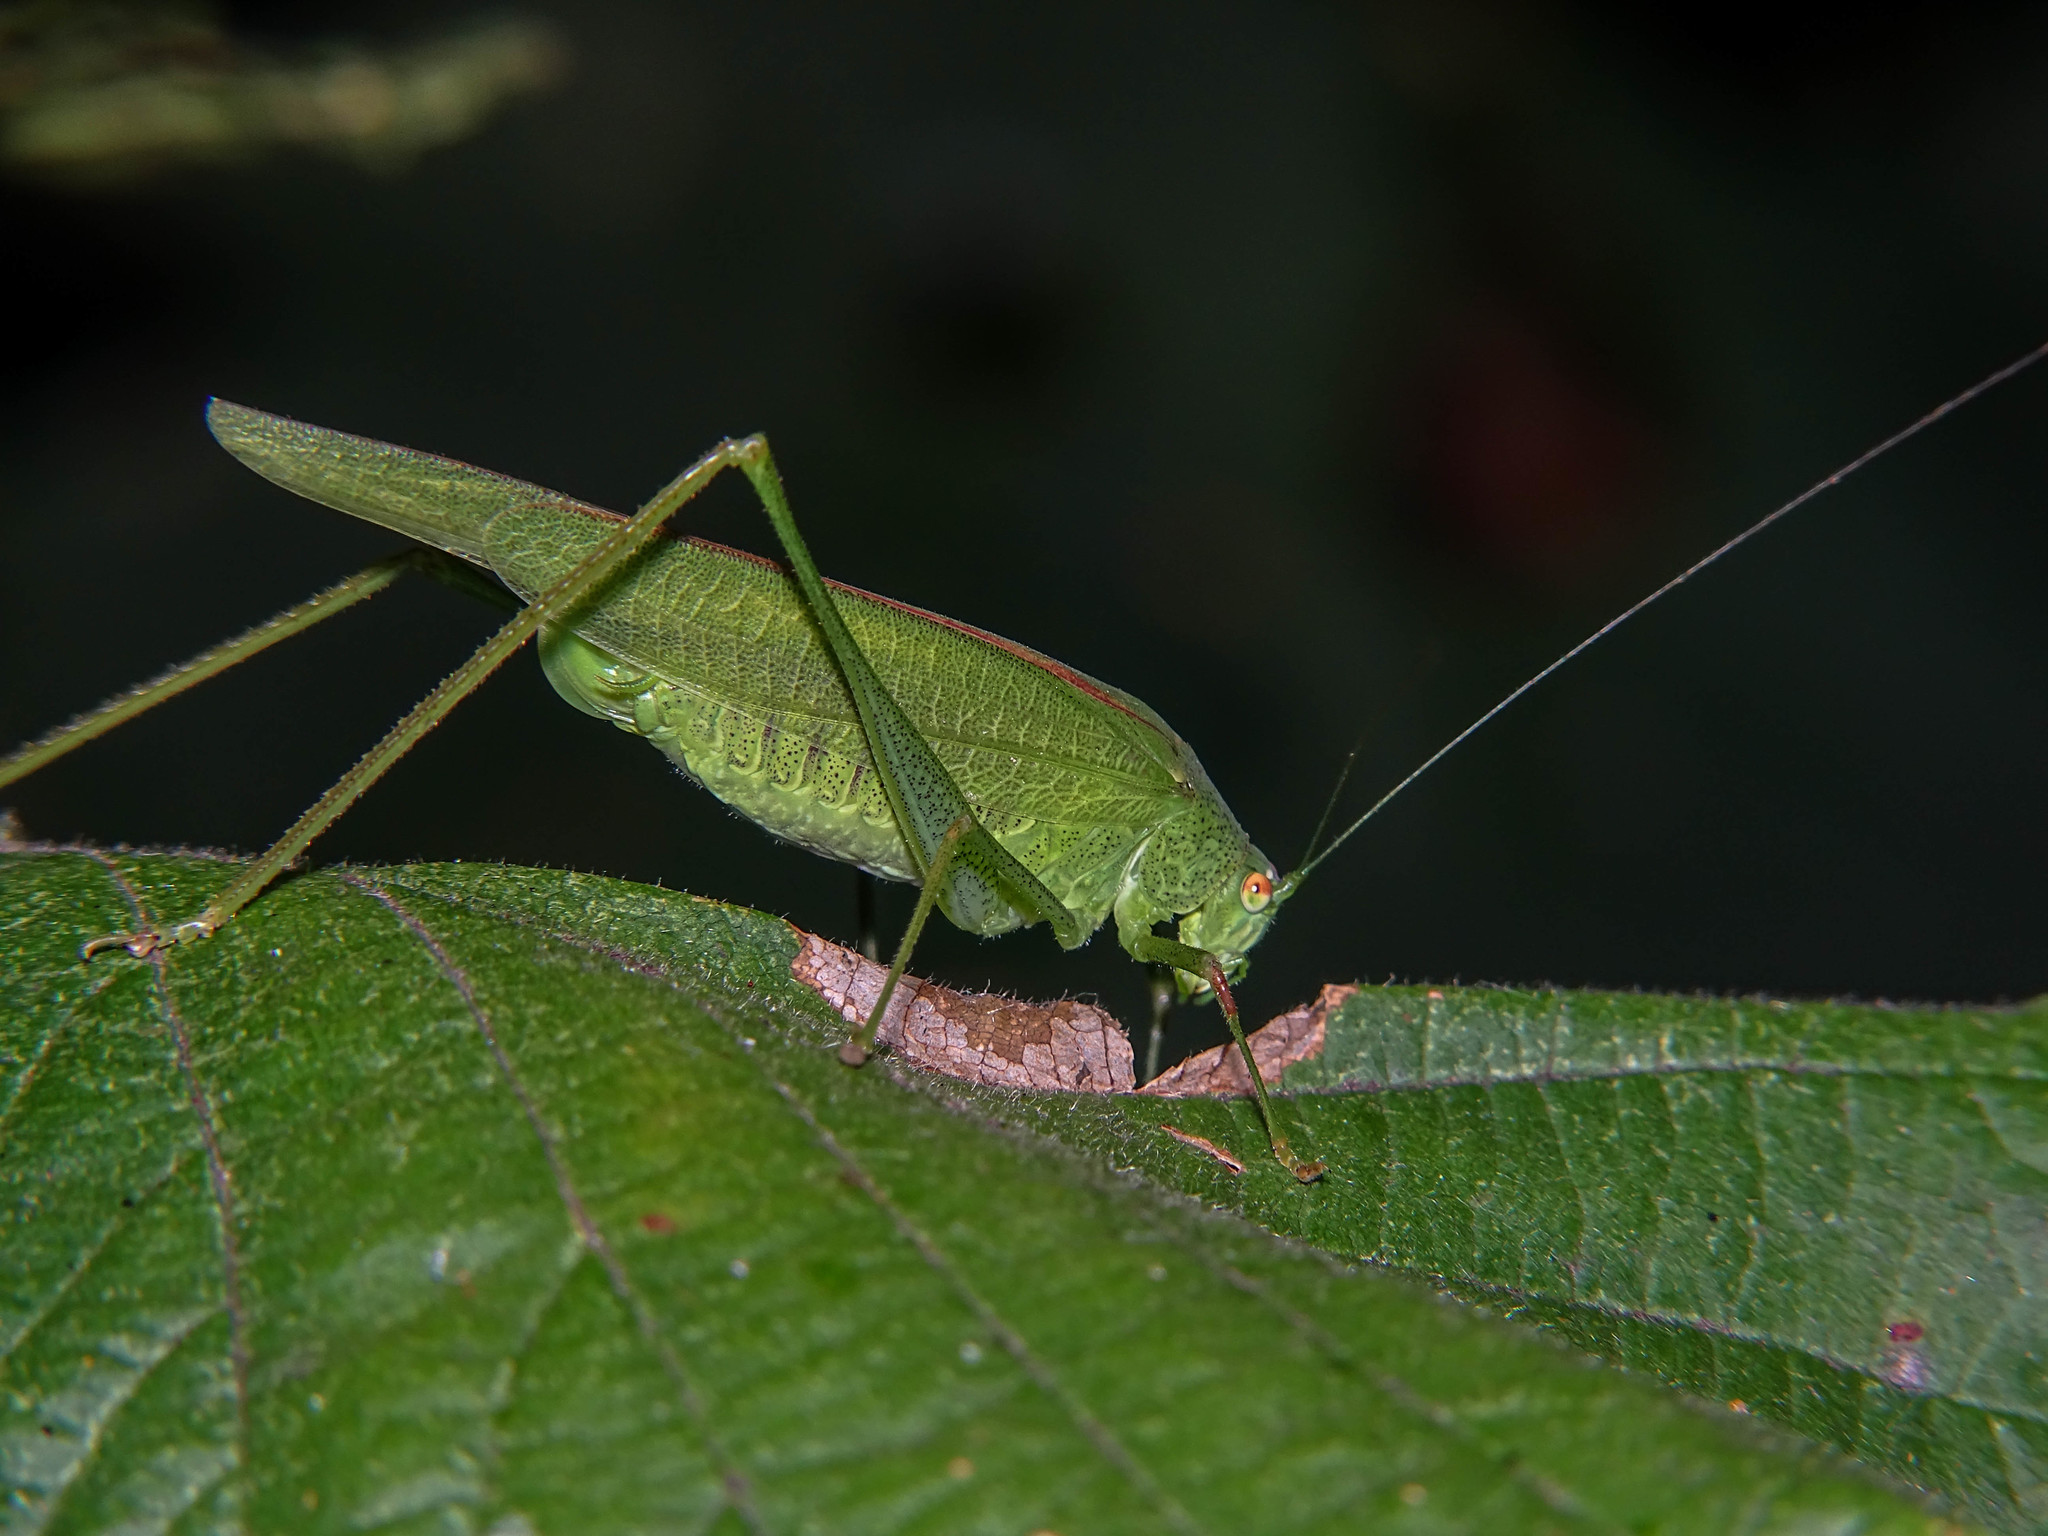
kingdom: Animalia
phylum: Arthropoda
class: Insecta
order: Orthoptera
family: Tettigoniidae
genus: Phaneroptera
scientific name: Phaneroptera nana
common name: Southern sickle bush-cricket
